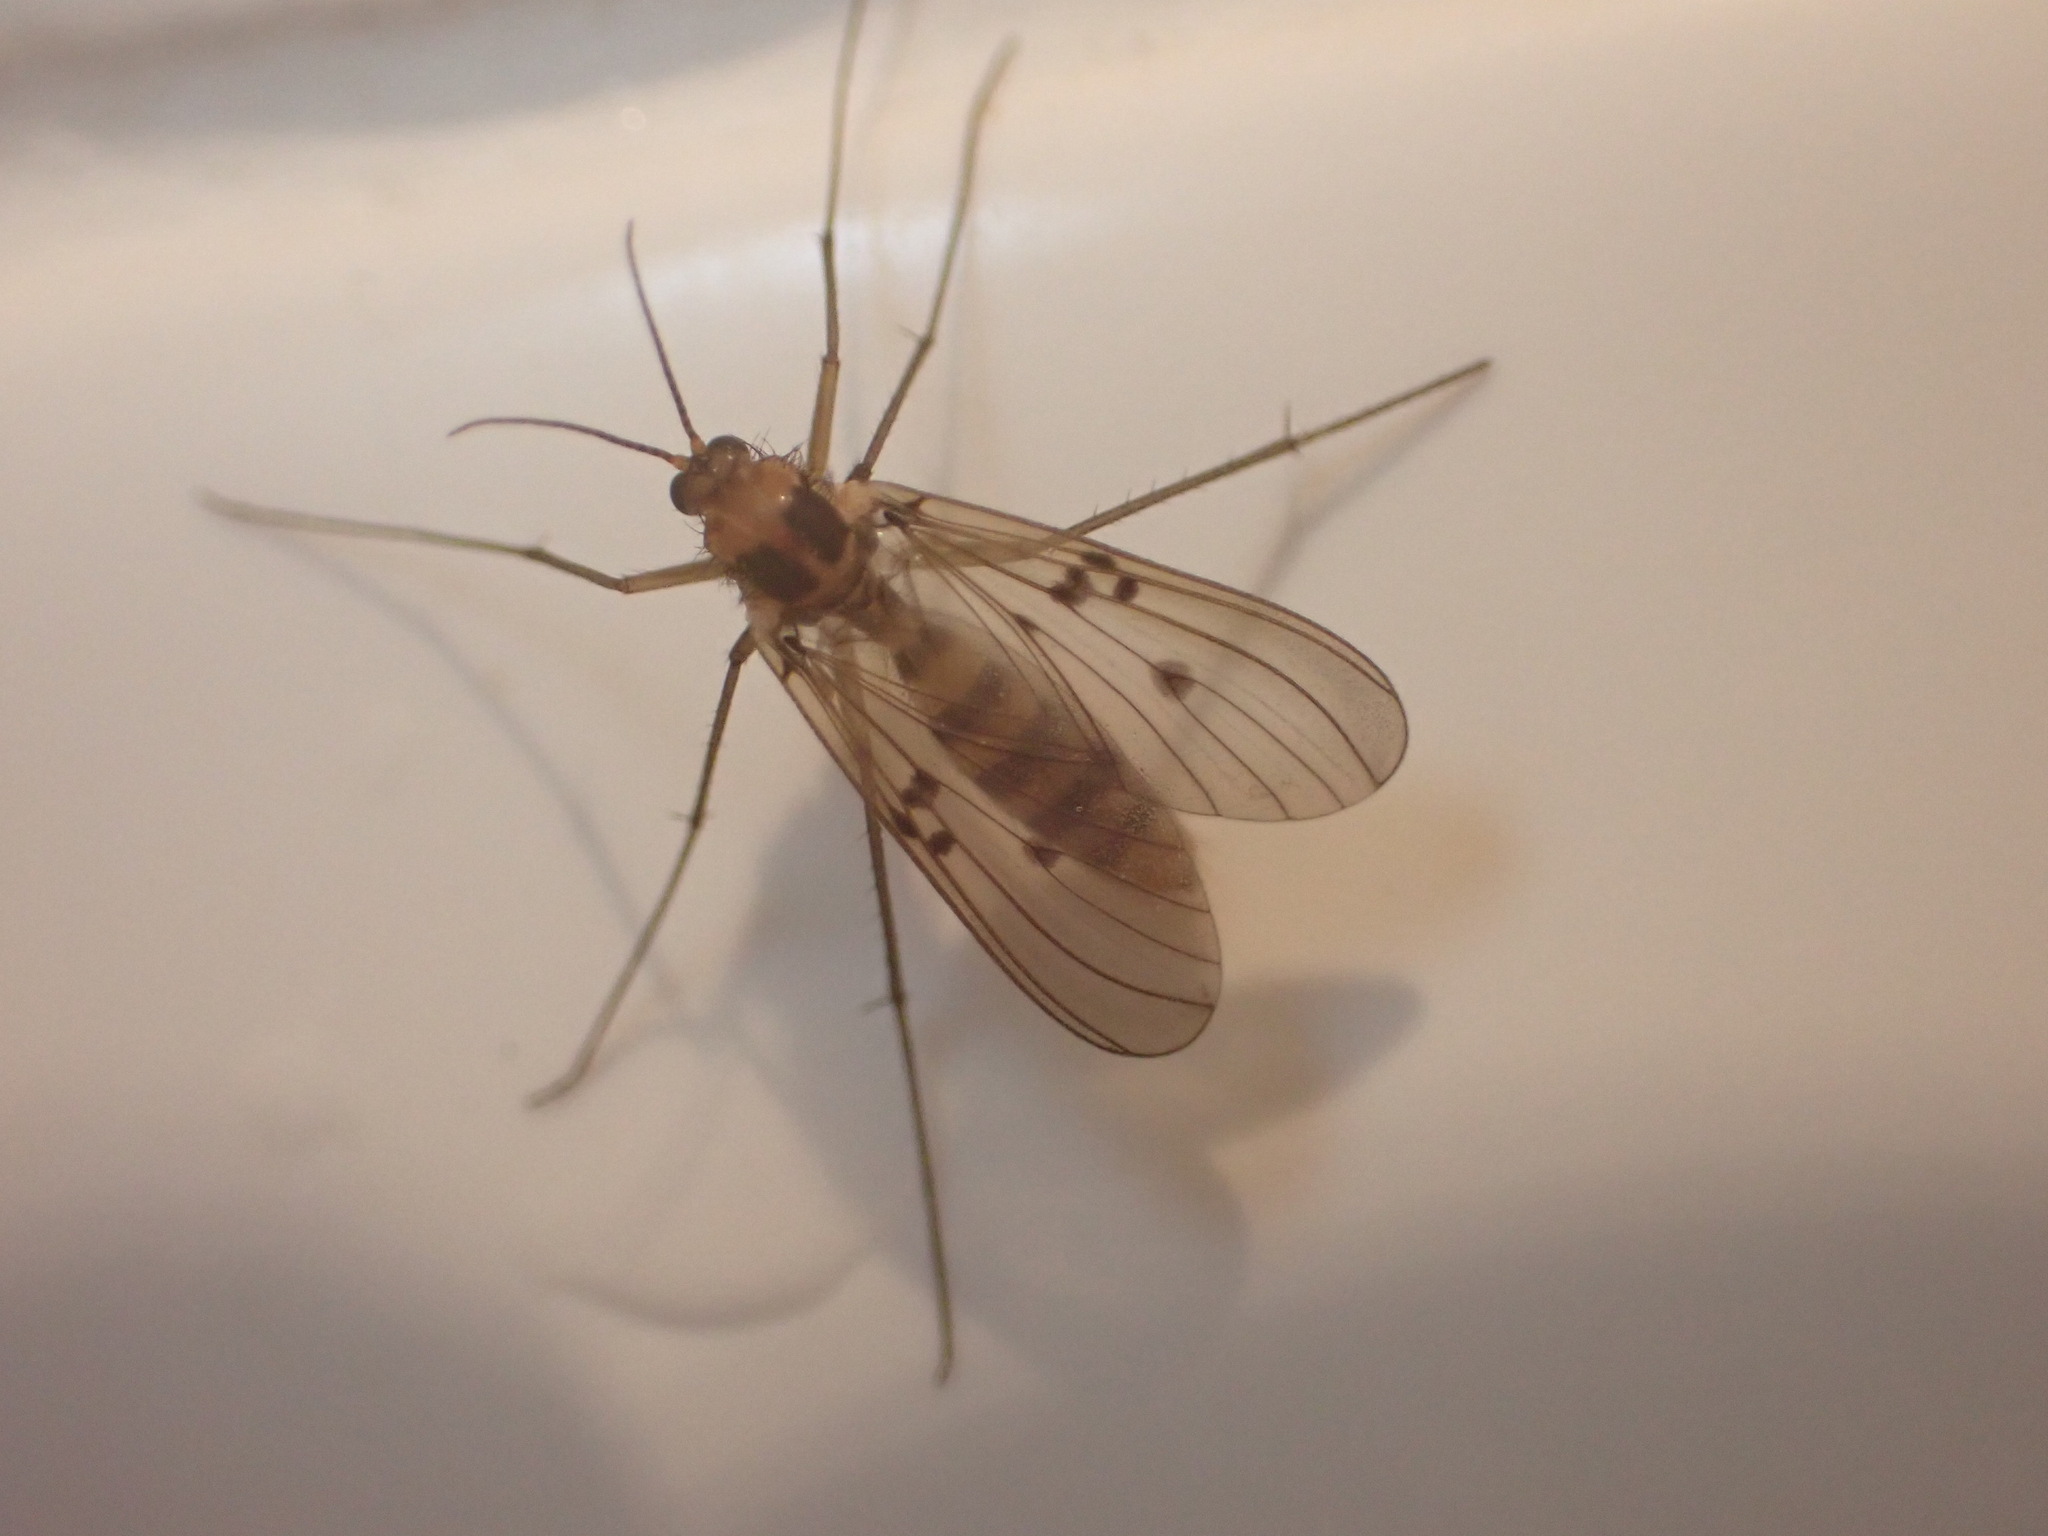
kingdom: Animalia
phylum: Arthropoda
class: Insecta
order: Diptera
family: Mycetophilidae
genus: Mycomya
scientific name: Mycomya quadrimaculata
